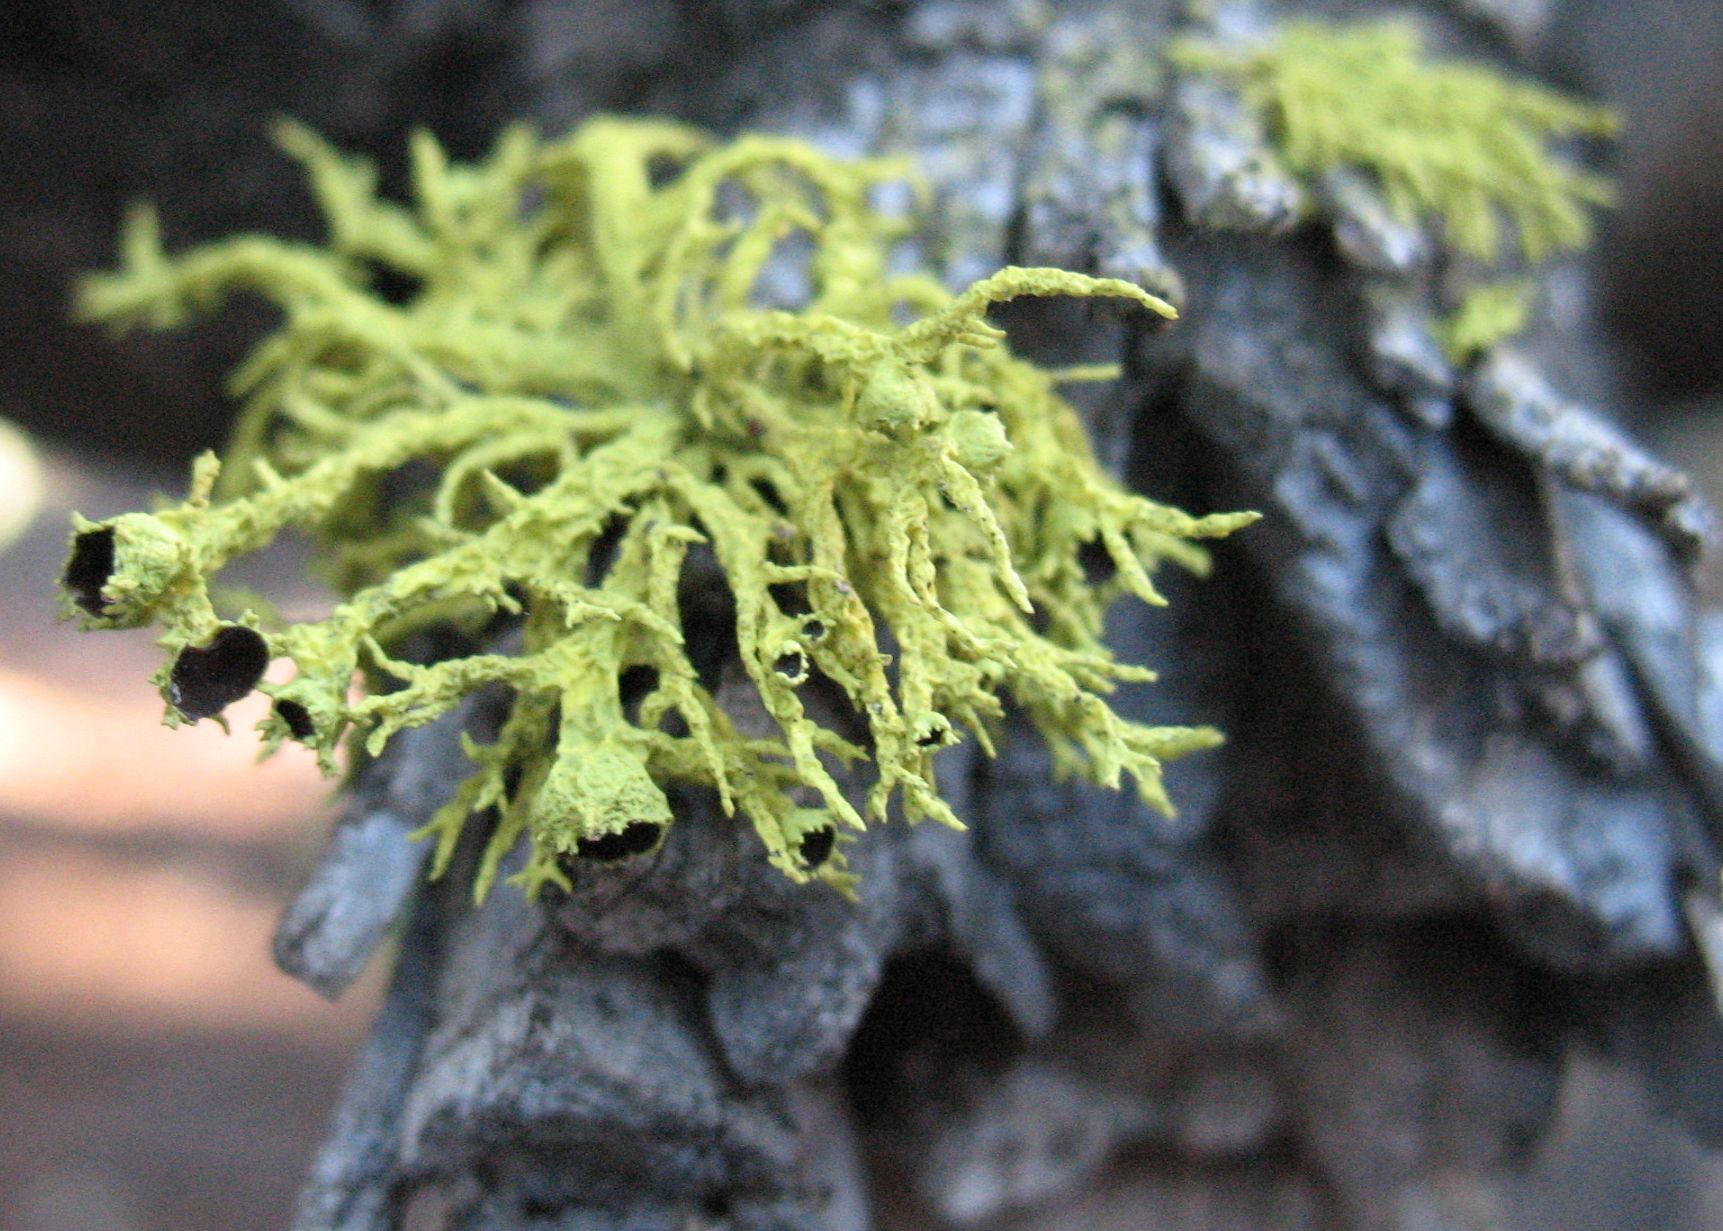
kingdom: Fungi
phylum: Ascomycota
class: Lecanoromycetes
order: Lecanorales
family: Parmeliaceae
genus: Letharia
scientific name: Letharia columbiana
